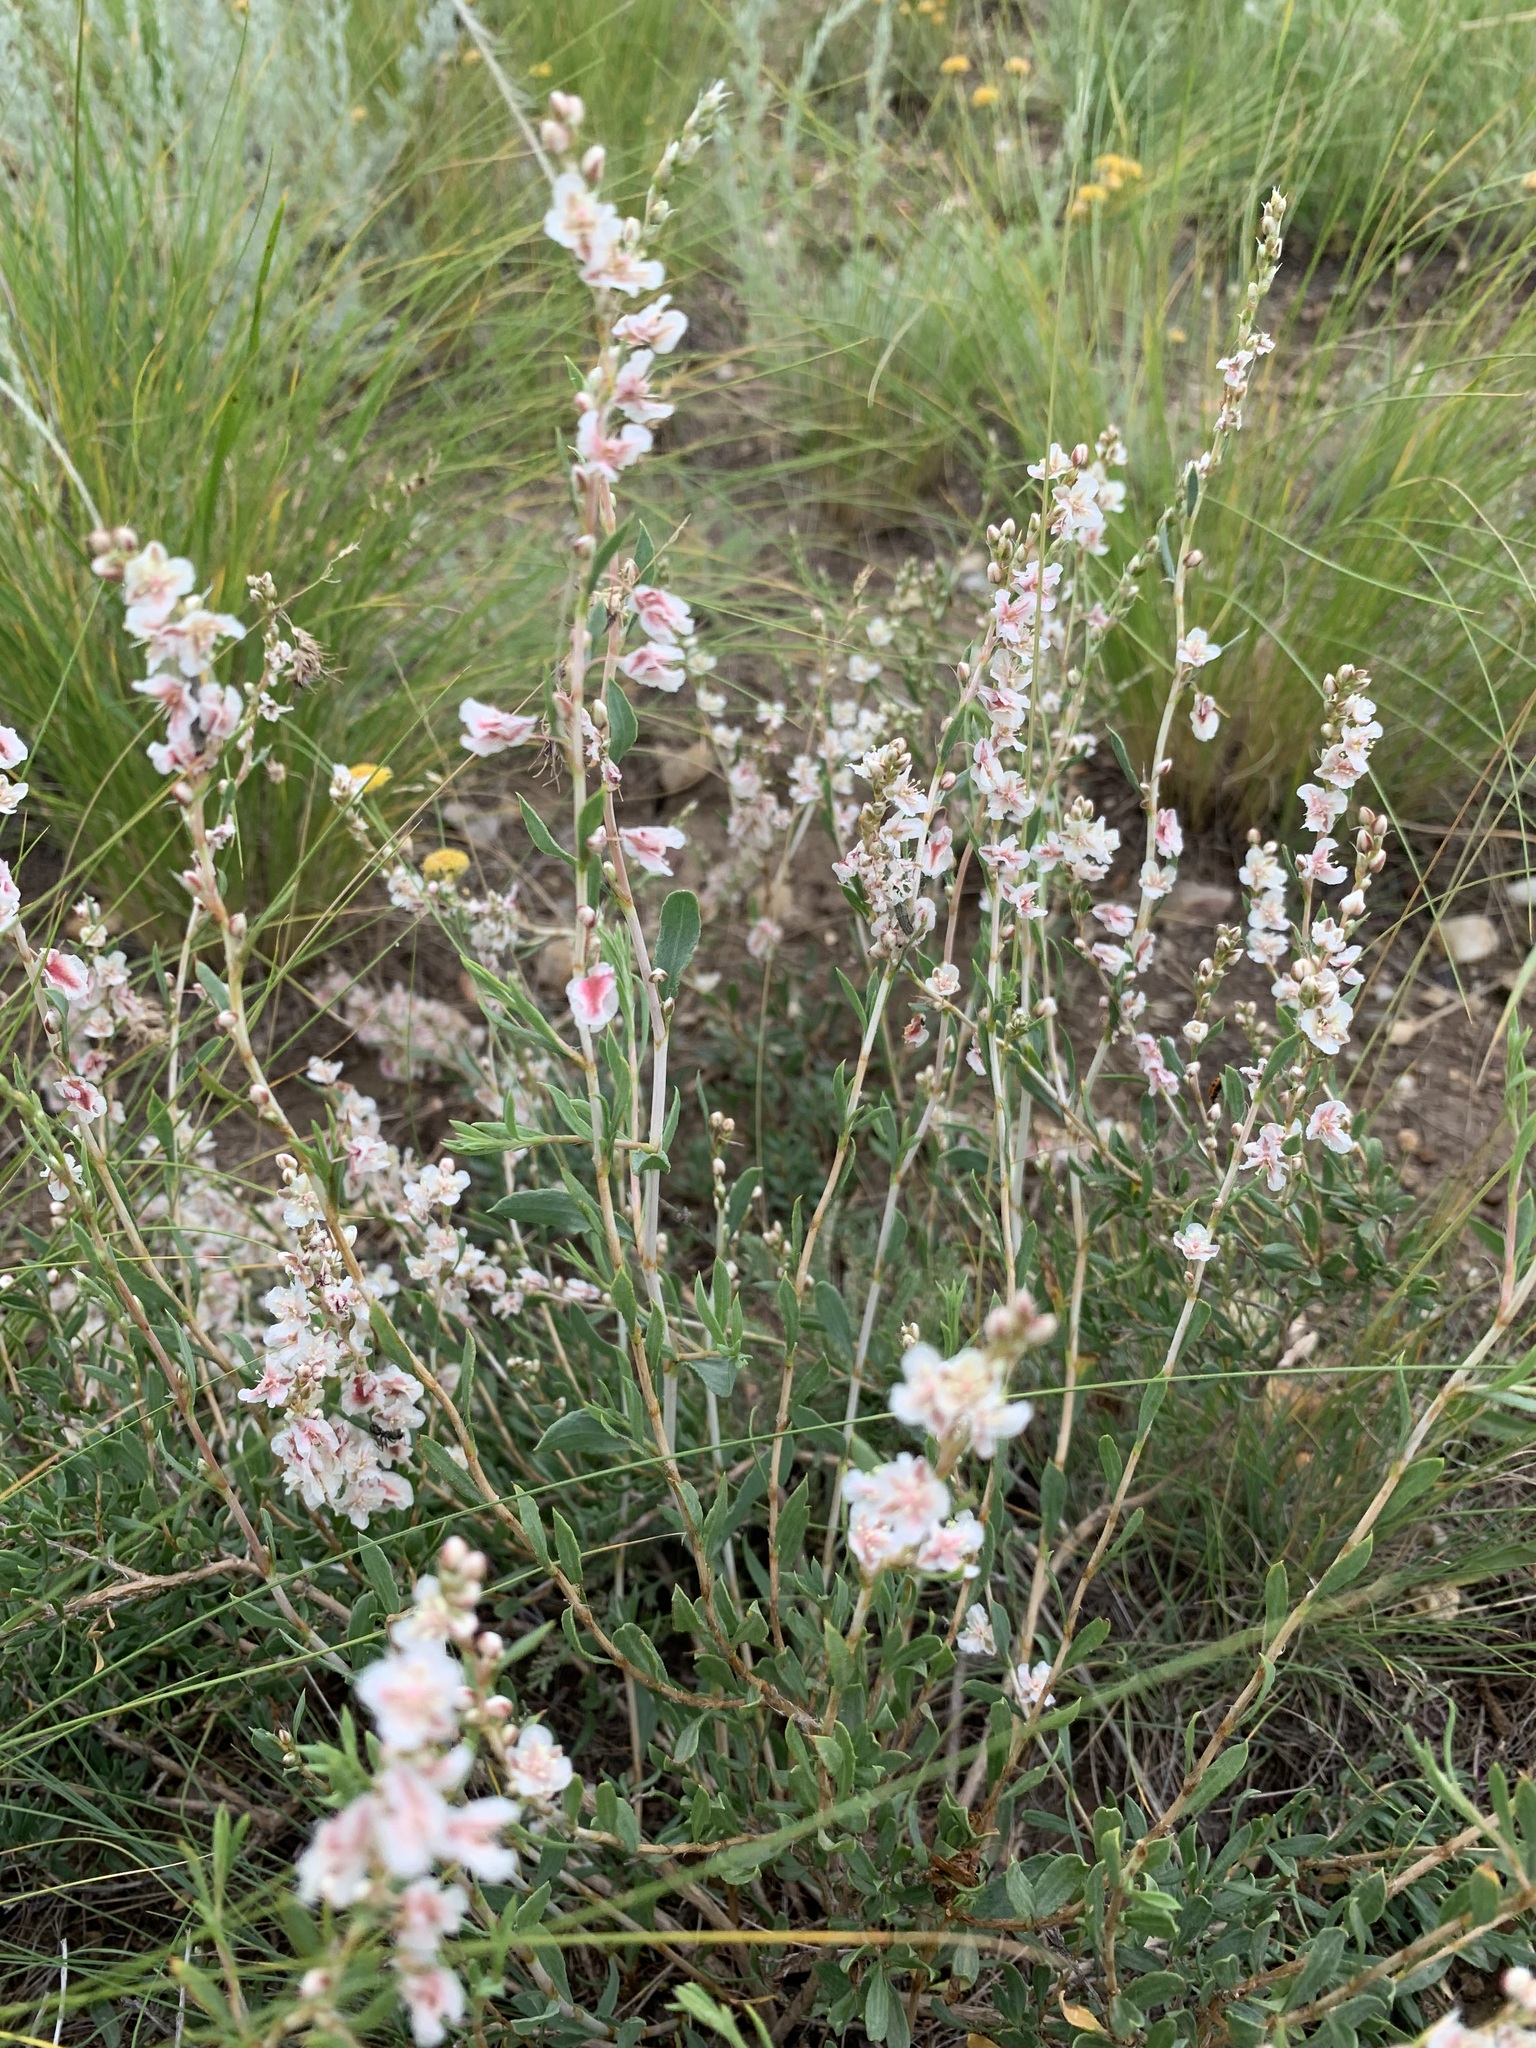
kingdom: Plantae
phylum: Tracheophyta
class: Magnoliopsida
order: Caryophyllales
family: Polygonaceae
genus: Atraphaxis
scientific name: Atraphaxis frutescens
